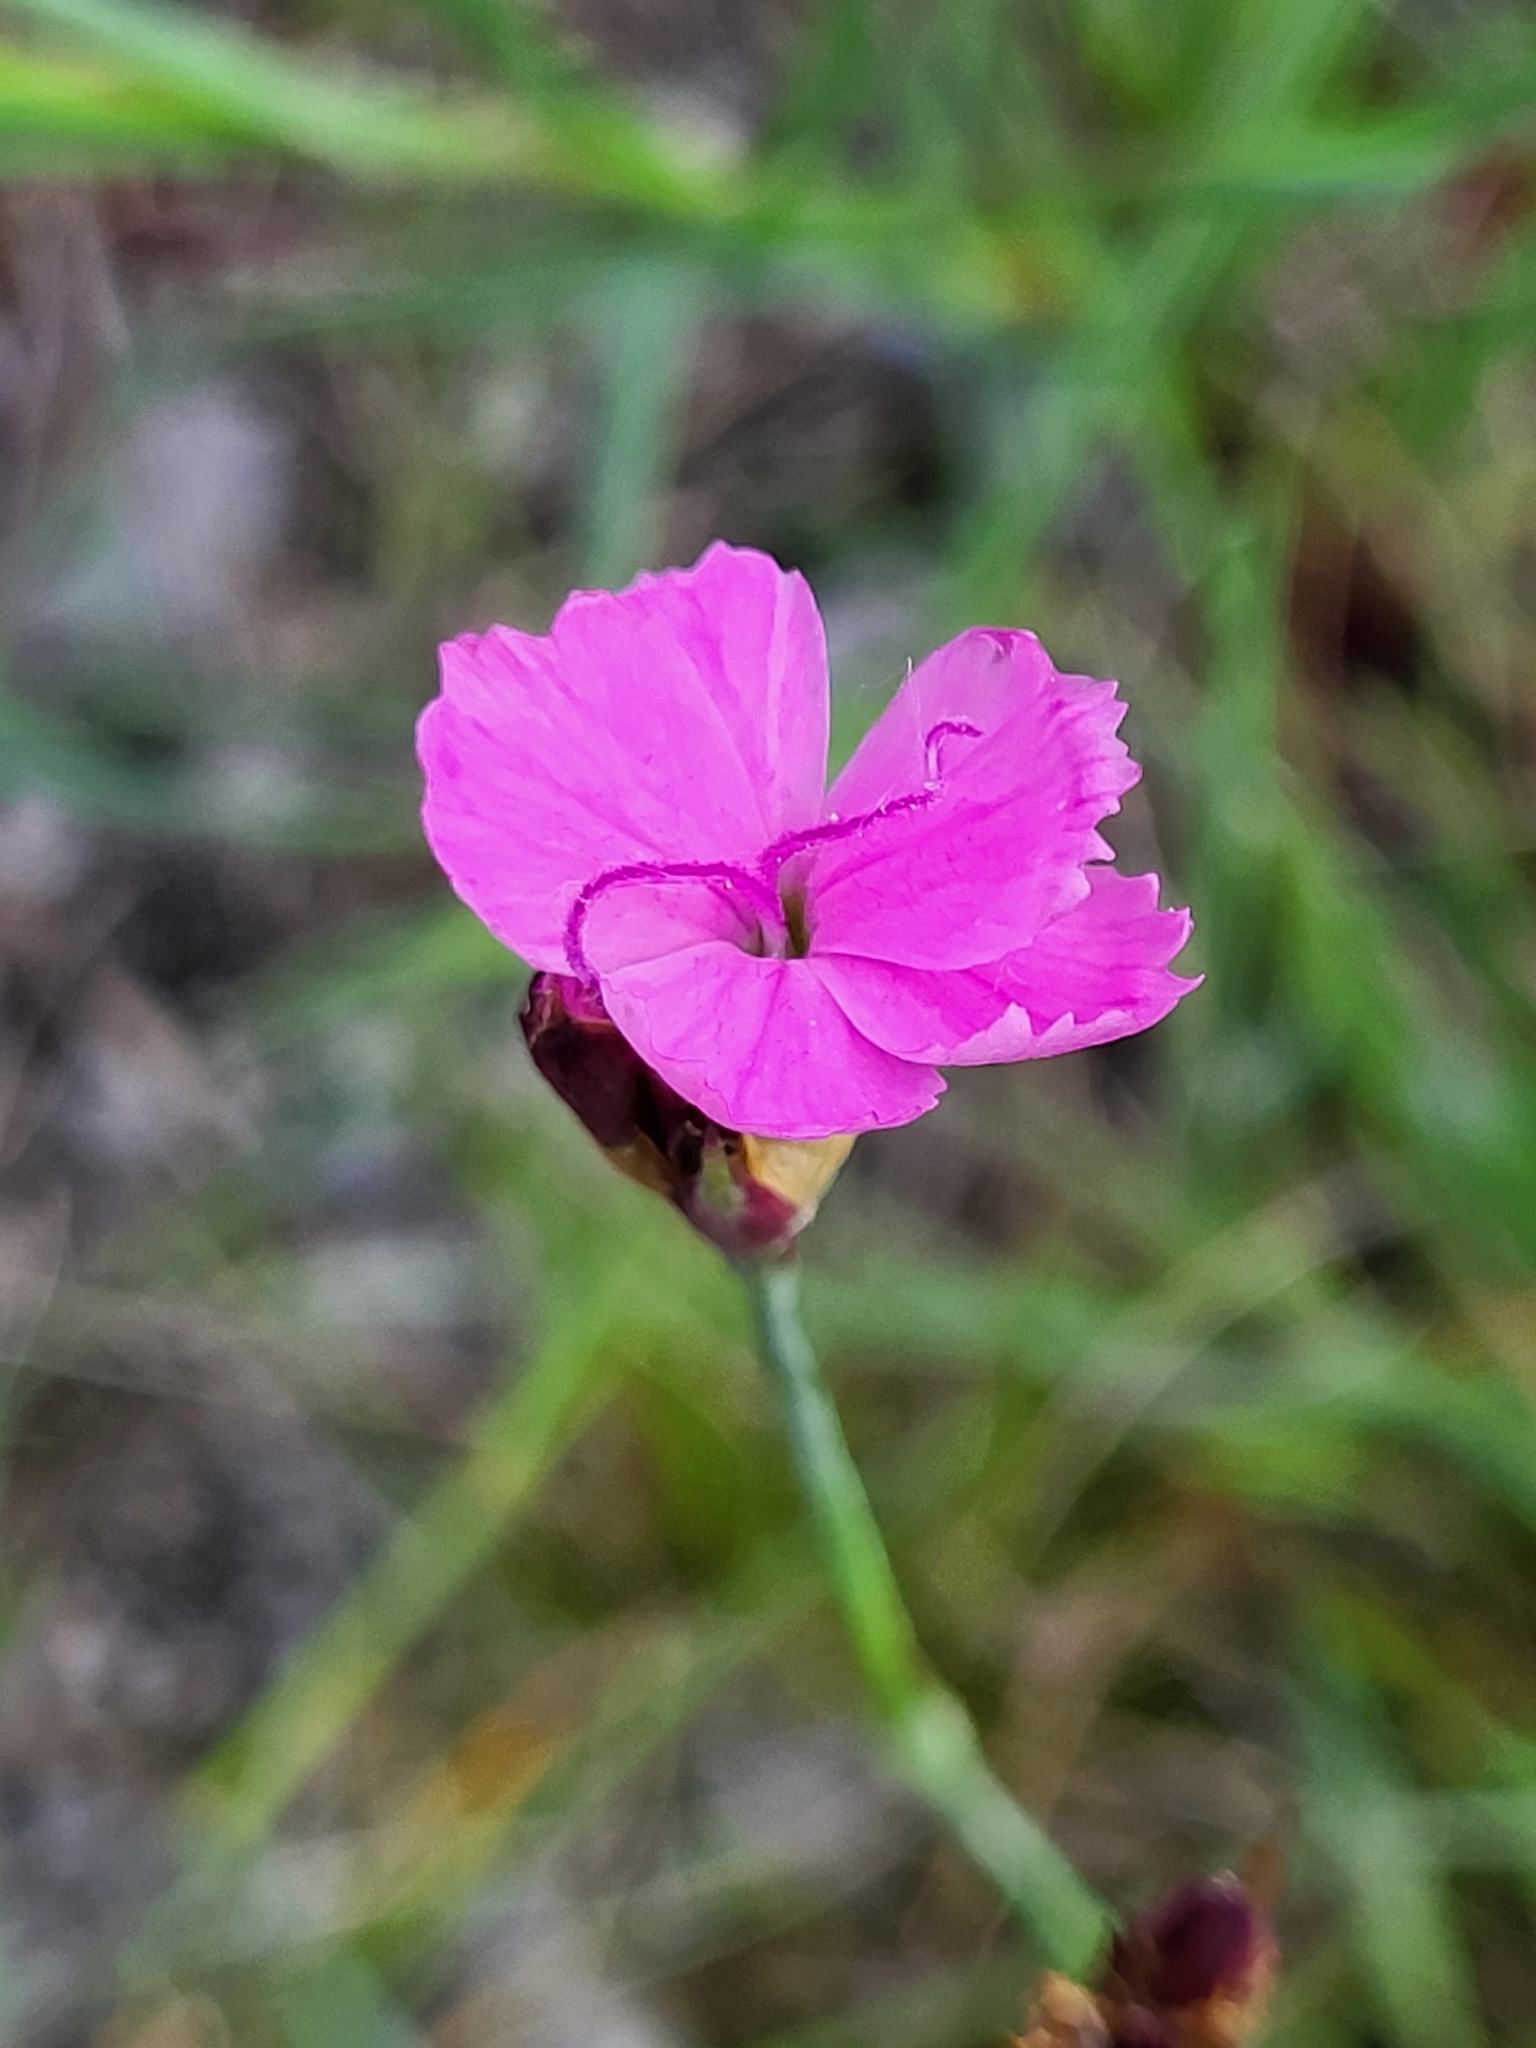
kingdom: Plantae
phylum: Tracheophyta
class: Magnoliopsida
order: Caryophyllales
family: Caryophyllaceae
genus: Dianthus
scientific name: Dianthus carthusianorum
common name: Carthusian pink
